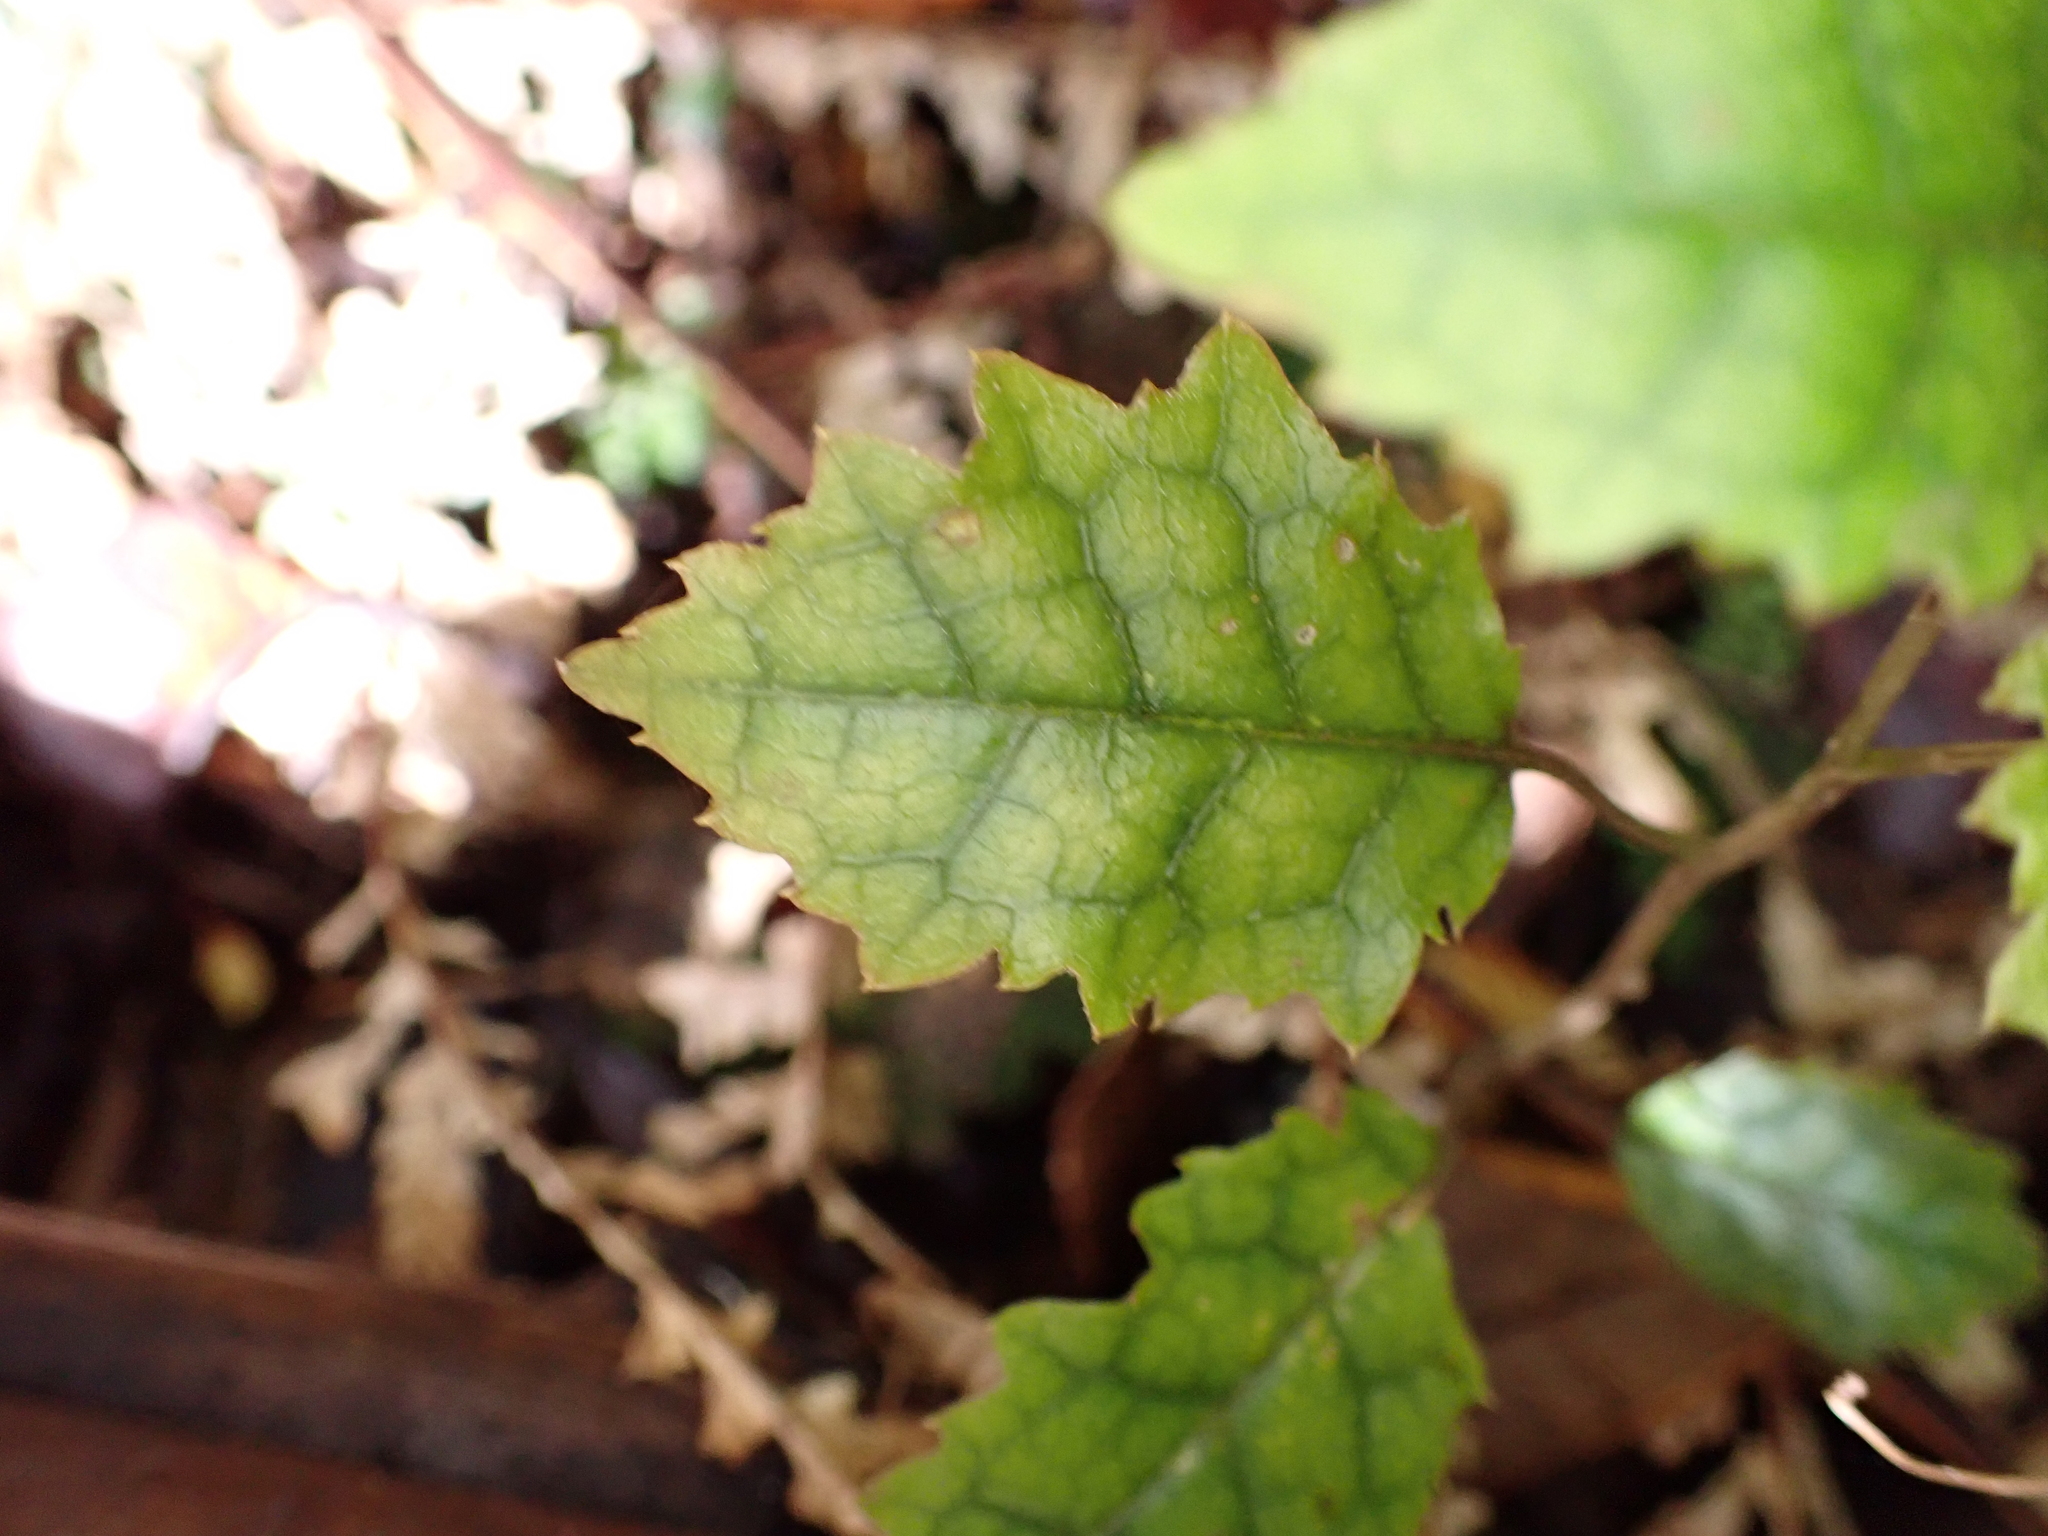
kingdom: Plantae
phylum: Tracheophyta
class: Magnoliopsida
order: Asterales
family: Rousseaceae
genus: Carpodetus
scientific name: Carpodetus serratus
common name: White mapau
